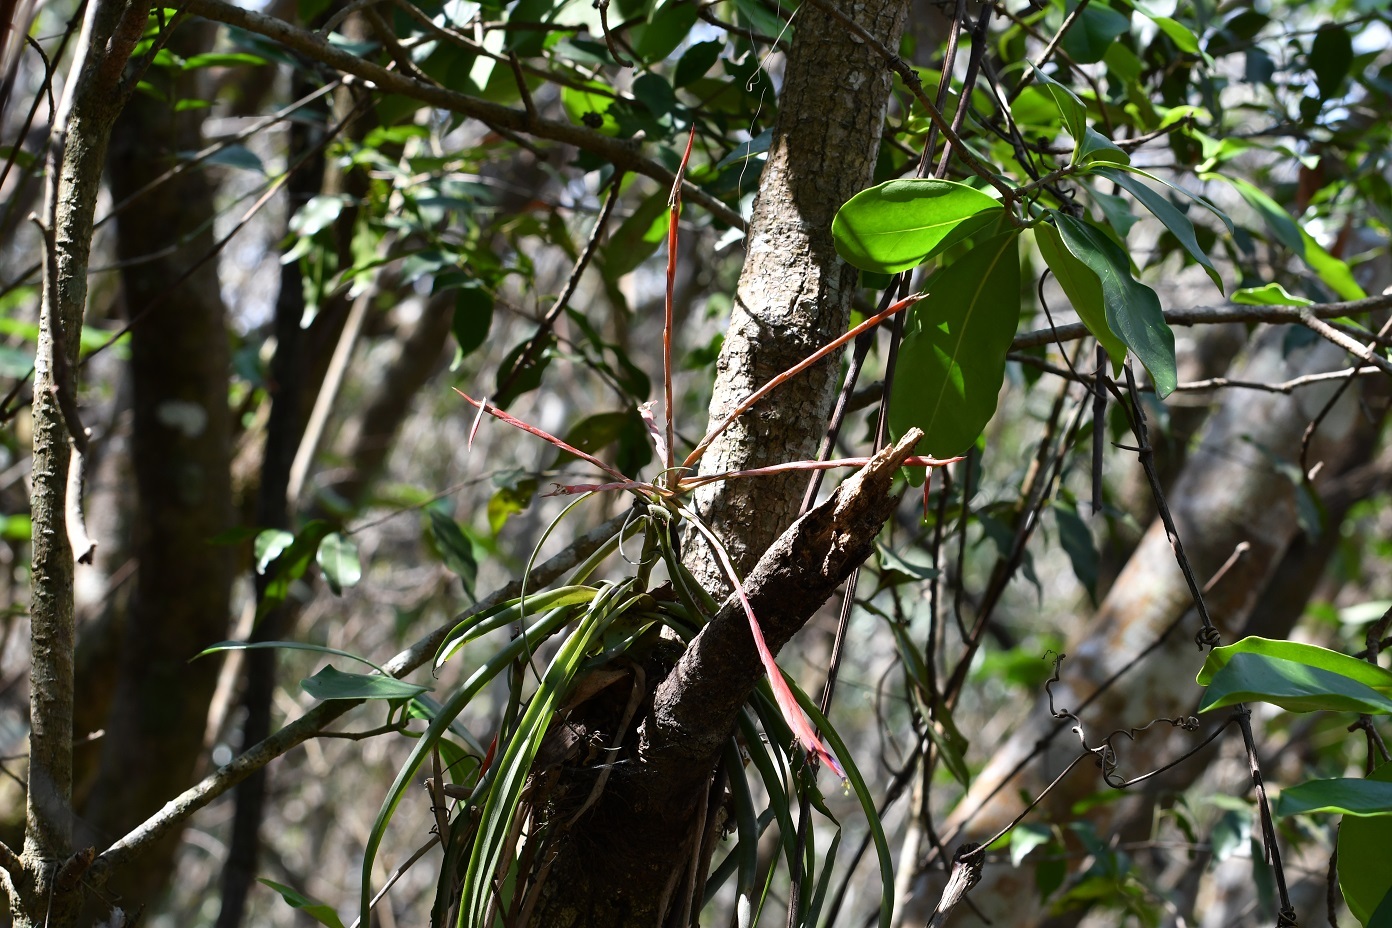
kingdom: Plantae
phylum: Tracheophyta
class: Liliopsida
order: Poales
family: Bromeliaceae
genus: Tillandsia
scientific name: Tillandsia flabellata
